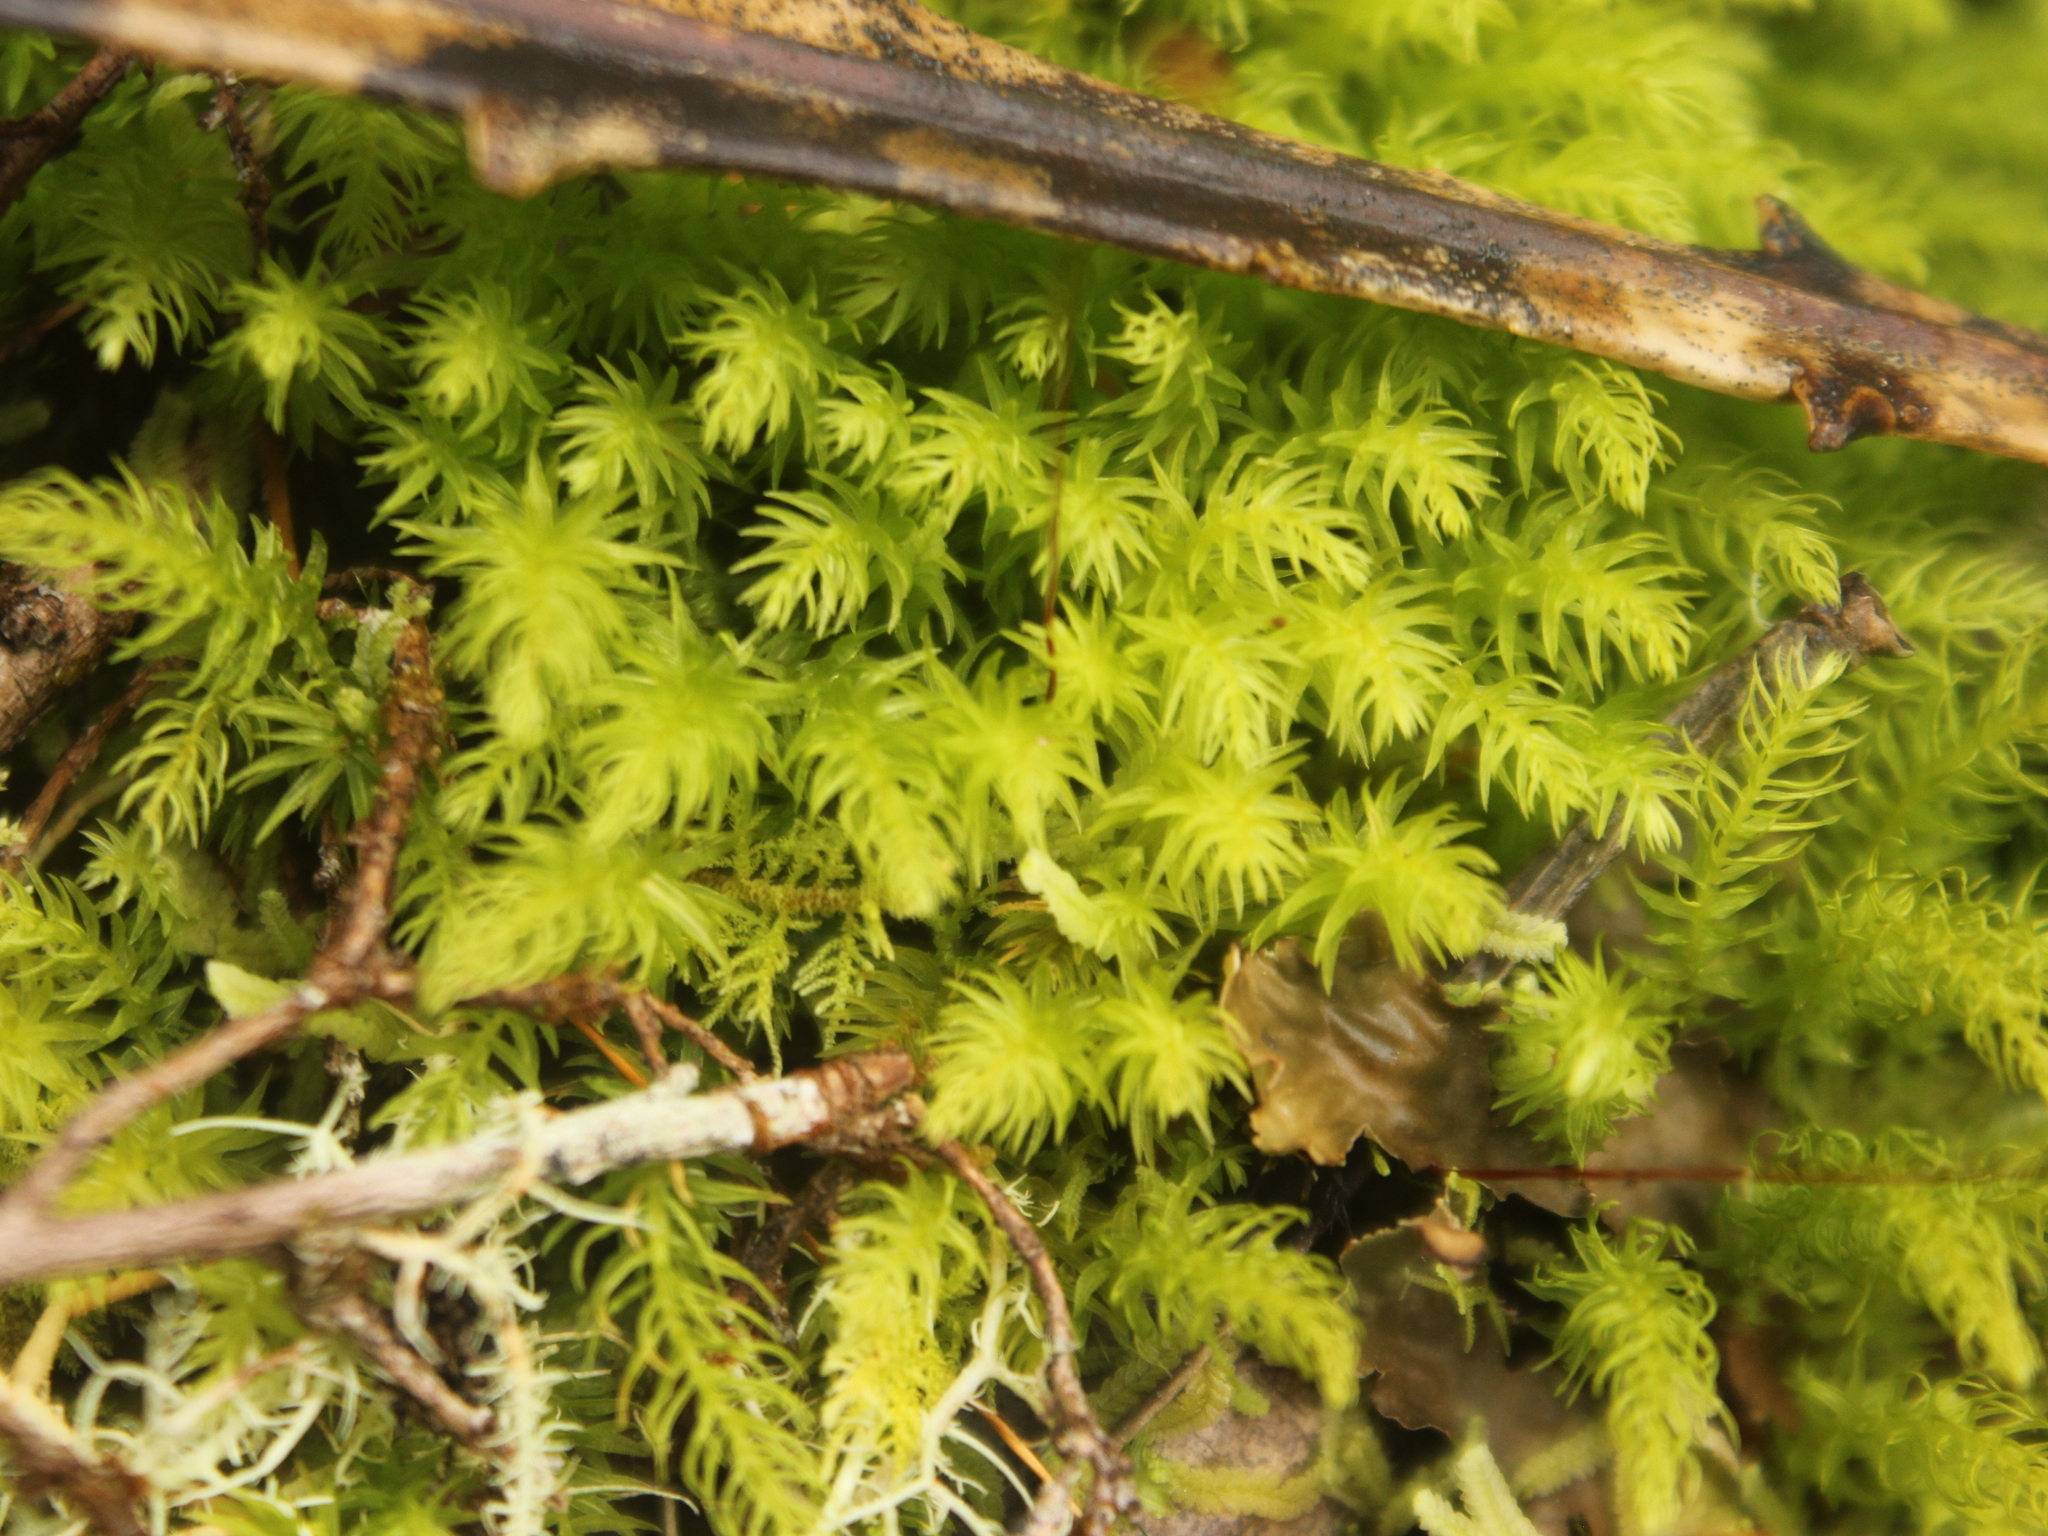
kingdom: Plantae
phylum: Bryophyta
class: Bryopsida
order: Aulacomniales
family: Aulacomniaceae
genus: Hymenodontopsis
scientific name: Hymenodontopsis mnioides
